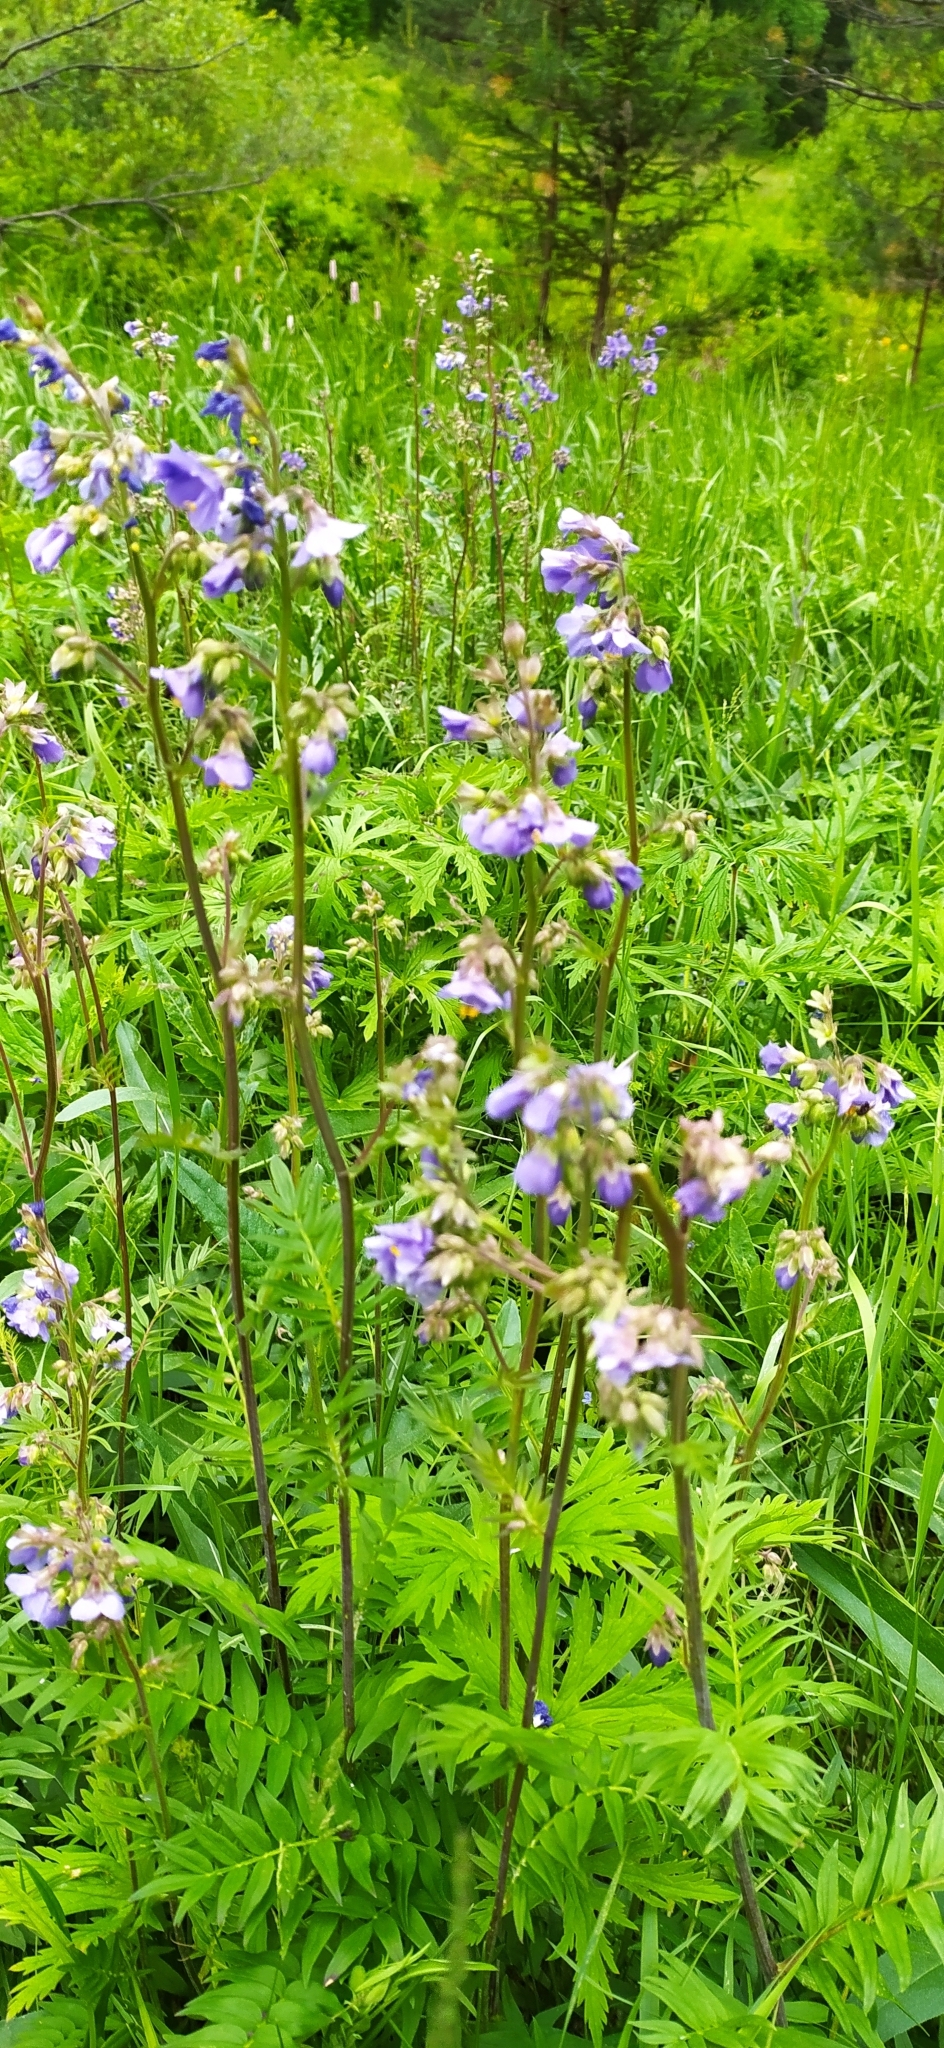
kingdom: Plantae
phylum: Tracheophyta
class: Magnoliopsida
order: Ericales
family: Polemoniaceae
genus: Polemonium
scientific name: Polemonium caeruleum
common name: Jacob's-ladder
